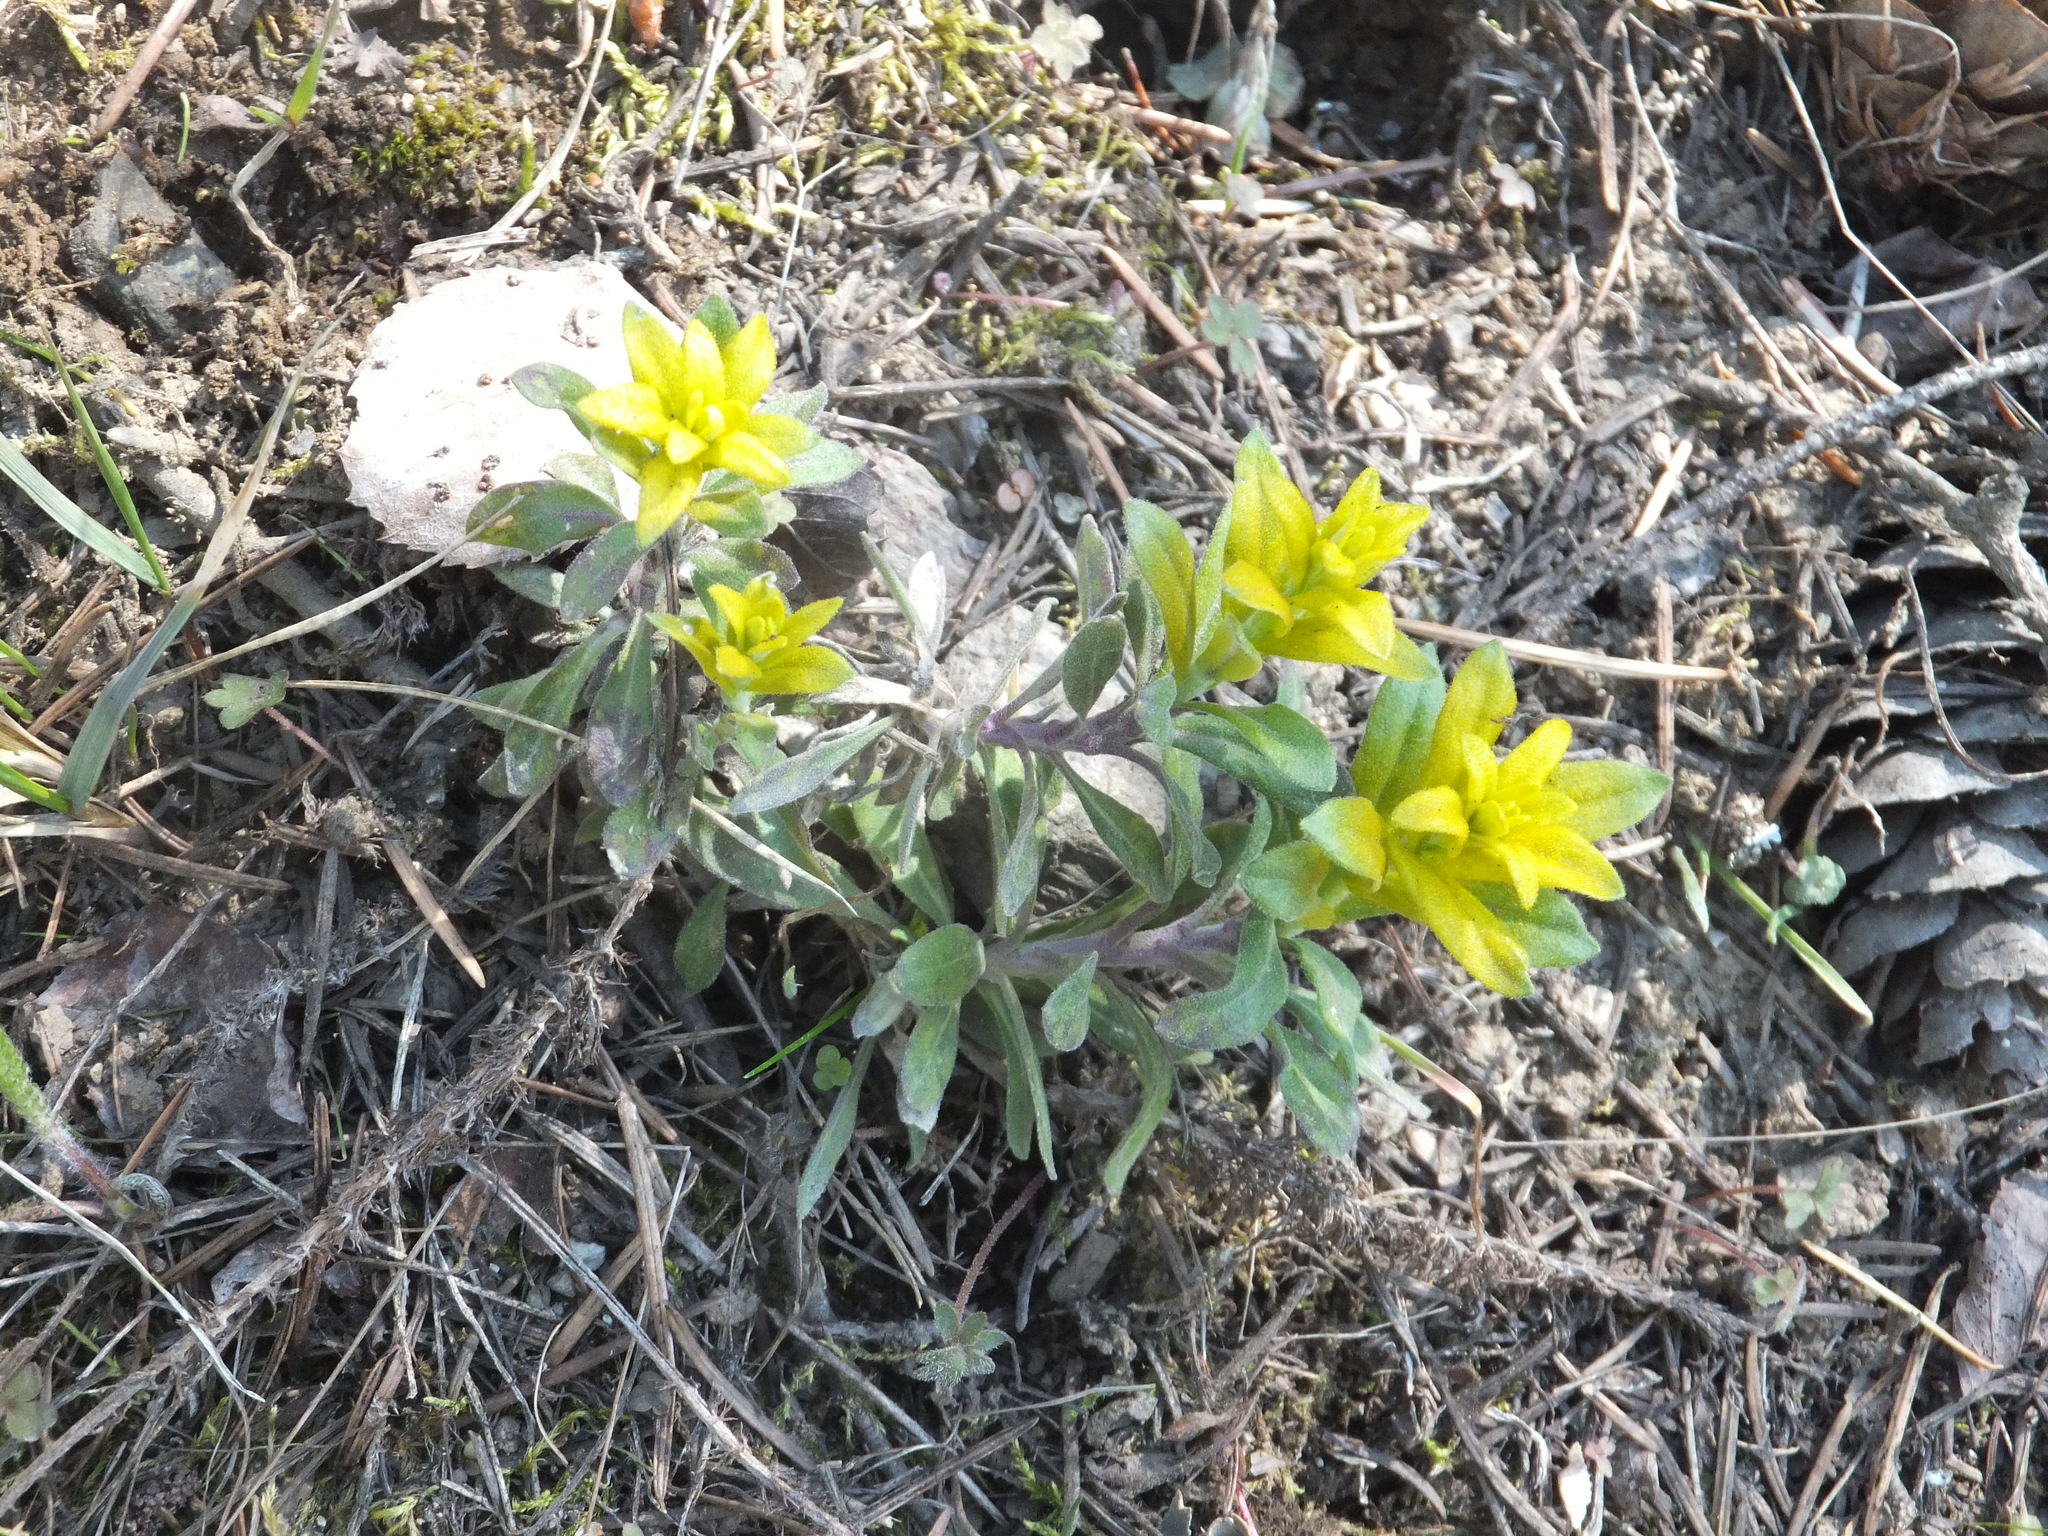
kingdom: Fungi
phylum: Basidiomycota
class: Pucciniomycetes
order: Pucciniales
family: Pucciniaceae
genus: Puccinia
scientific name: Puccinia monoica
